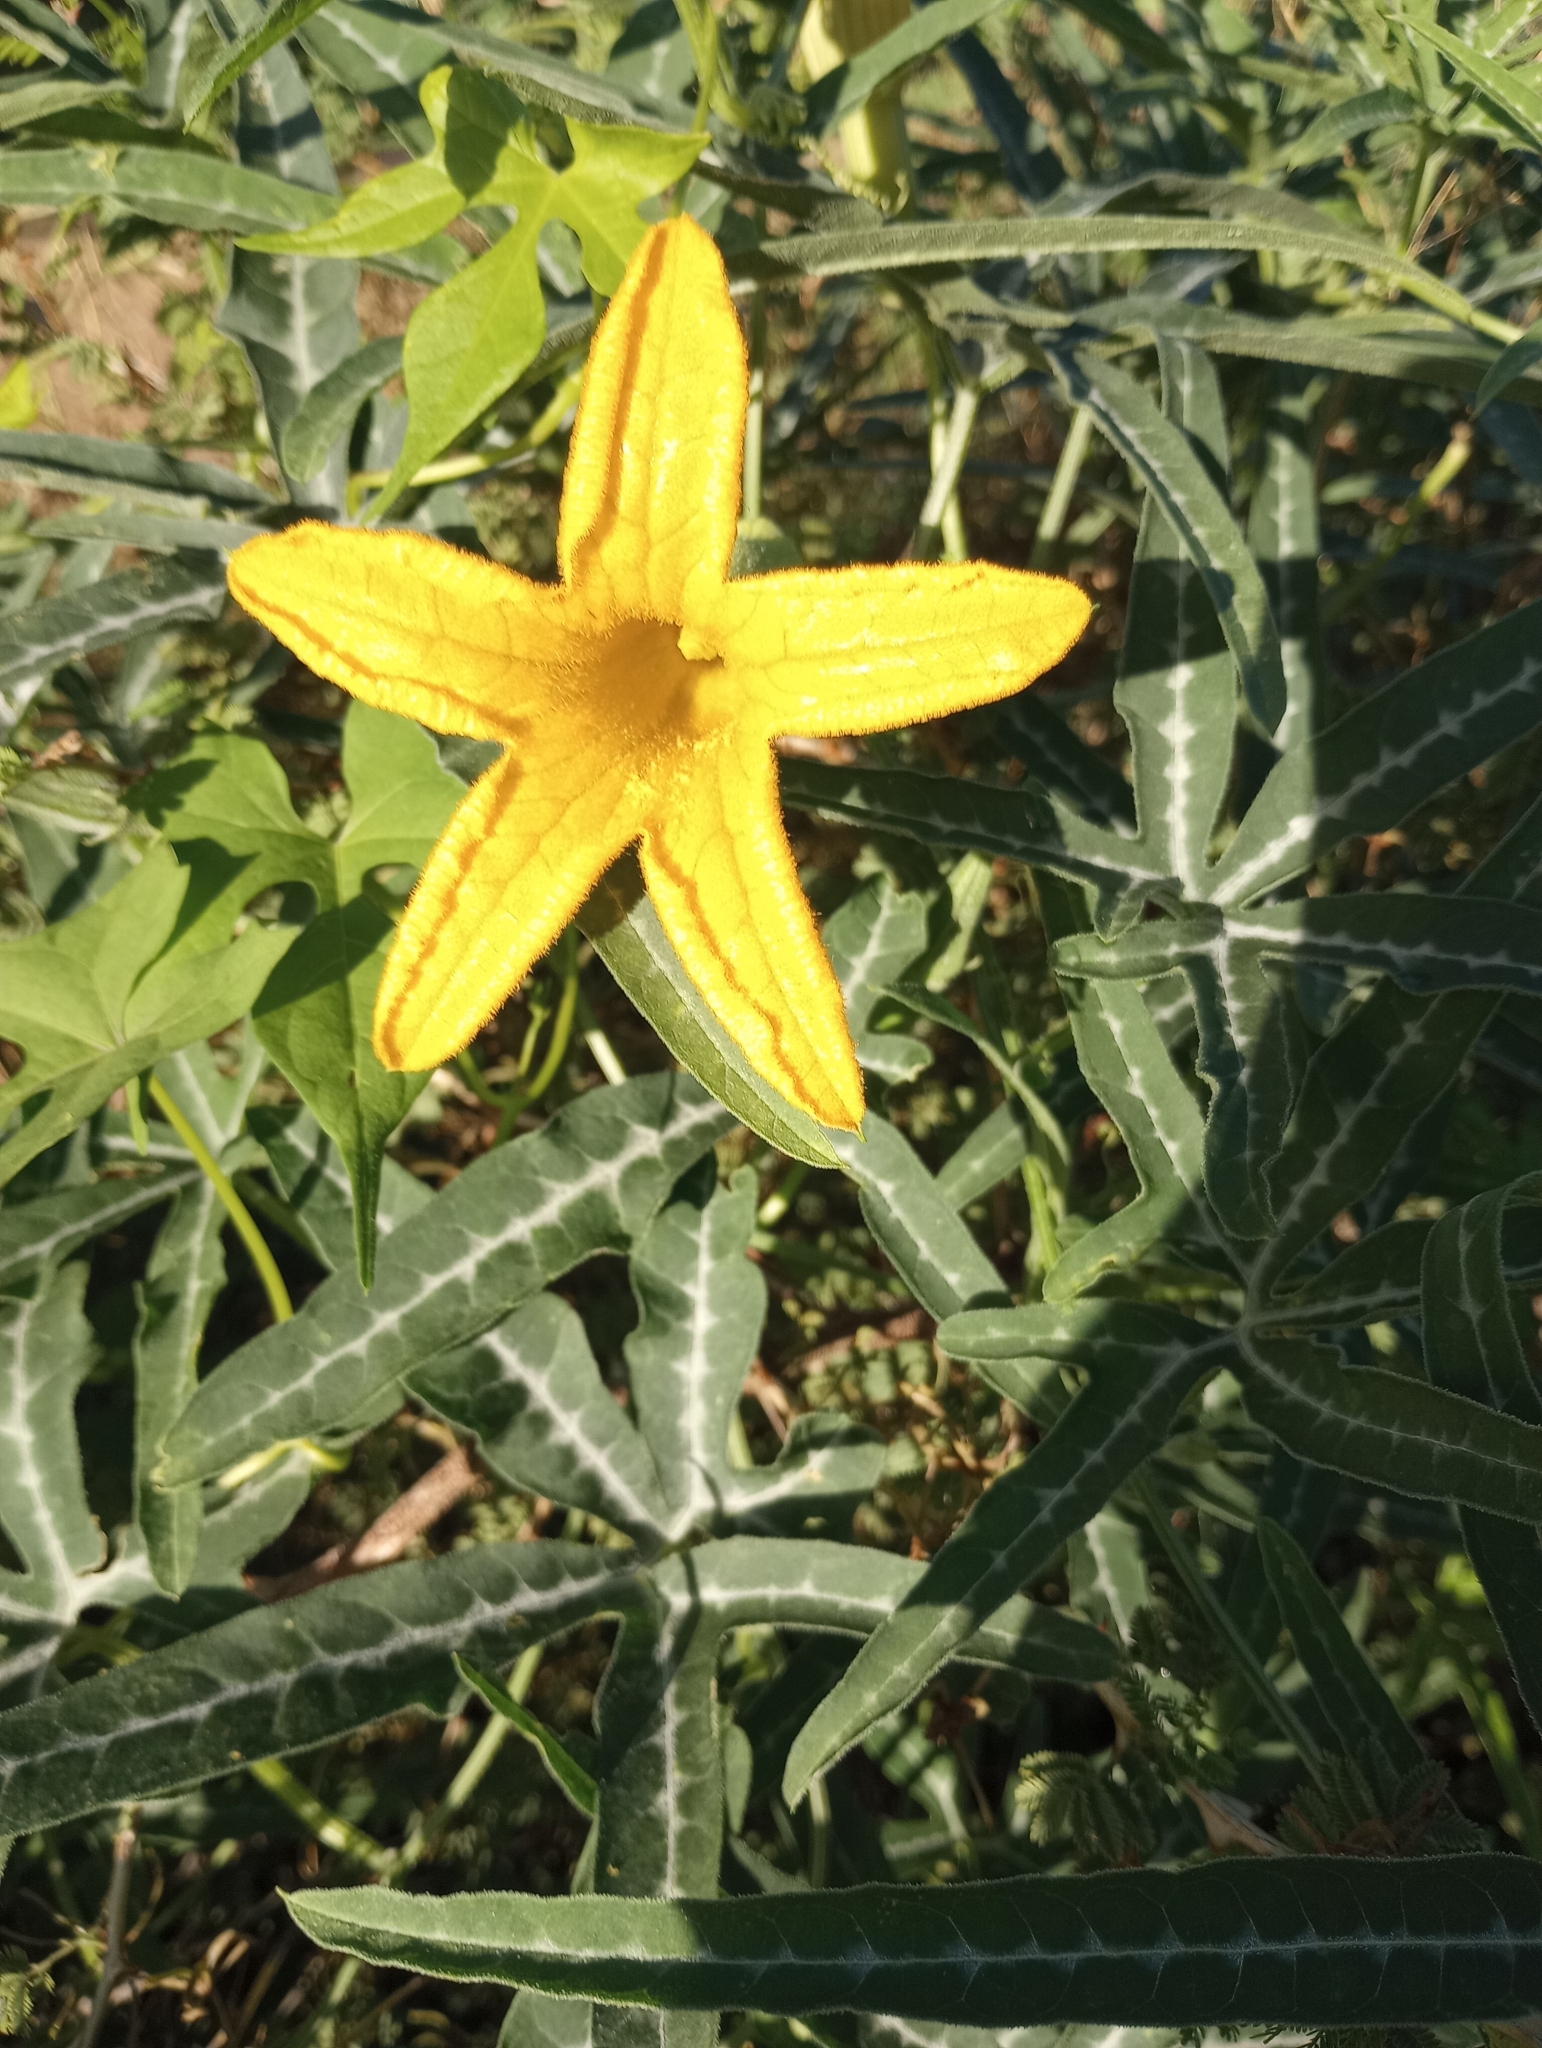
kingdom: Plantae
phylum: Tracheophyta
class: Magnoliopsida
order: Cucurbitales
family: Cucurbitaceae
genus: Cucurbita
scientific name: Cucurbita digitata
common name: Finger-leaf gourd
